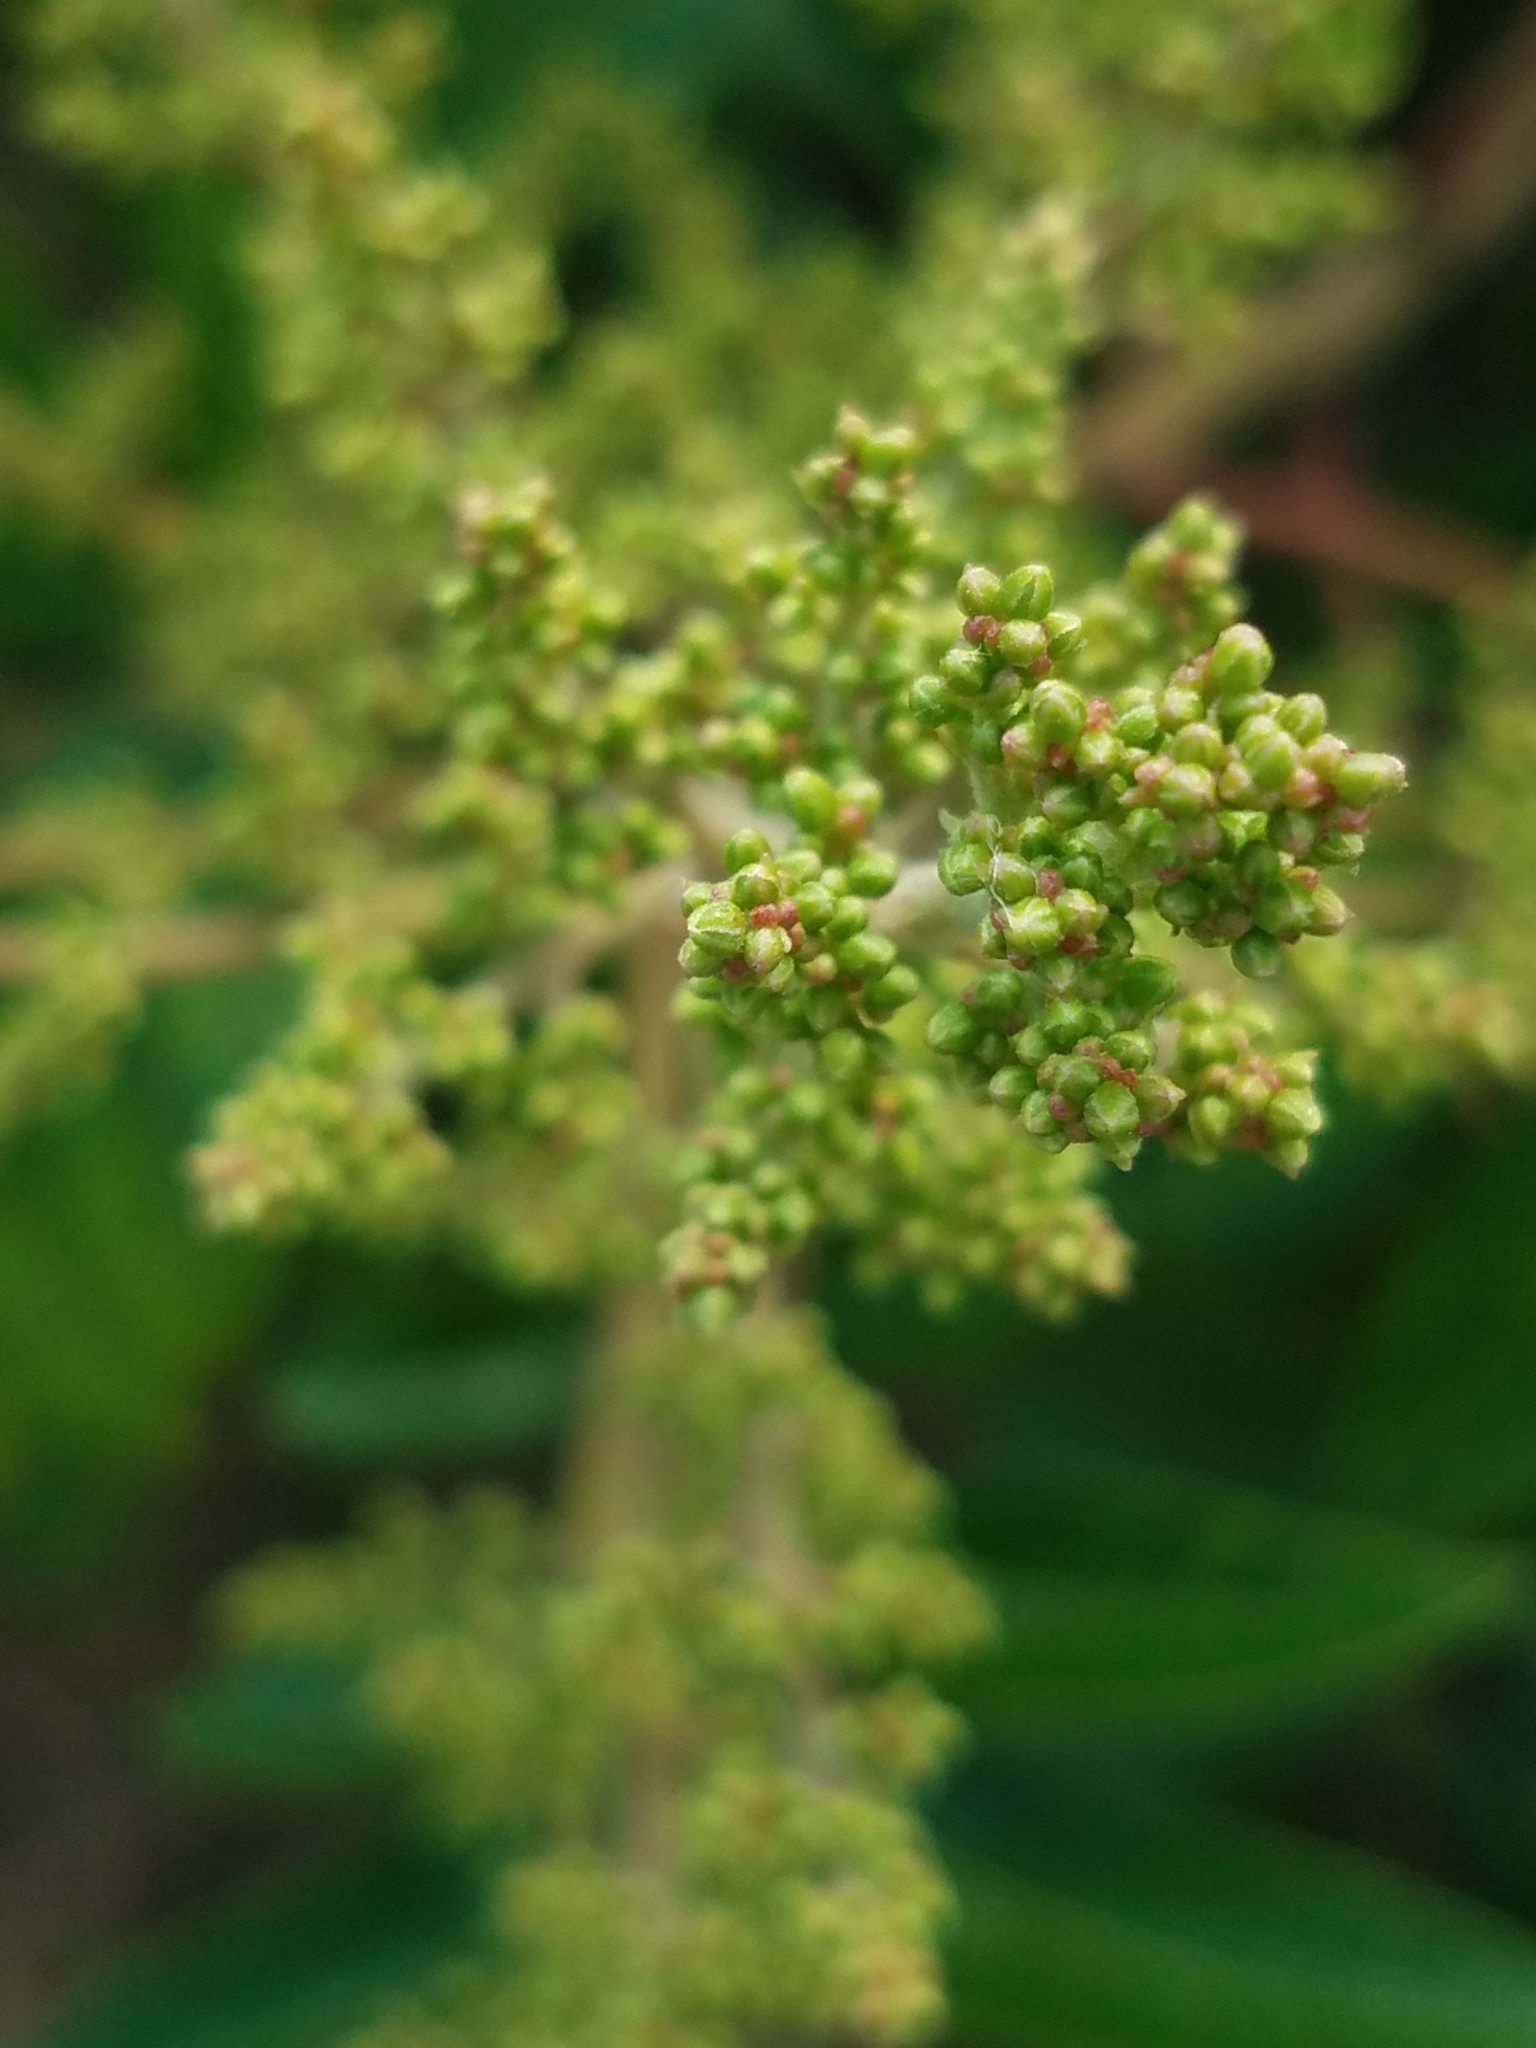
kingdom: Plantae
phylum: Tracheophyta
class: Magnoliopsida
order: Sapindales
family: Anacardiaceae
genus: Rhus
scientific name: Rhus copallina
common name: Shining sumac
